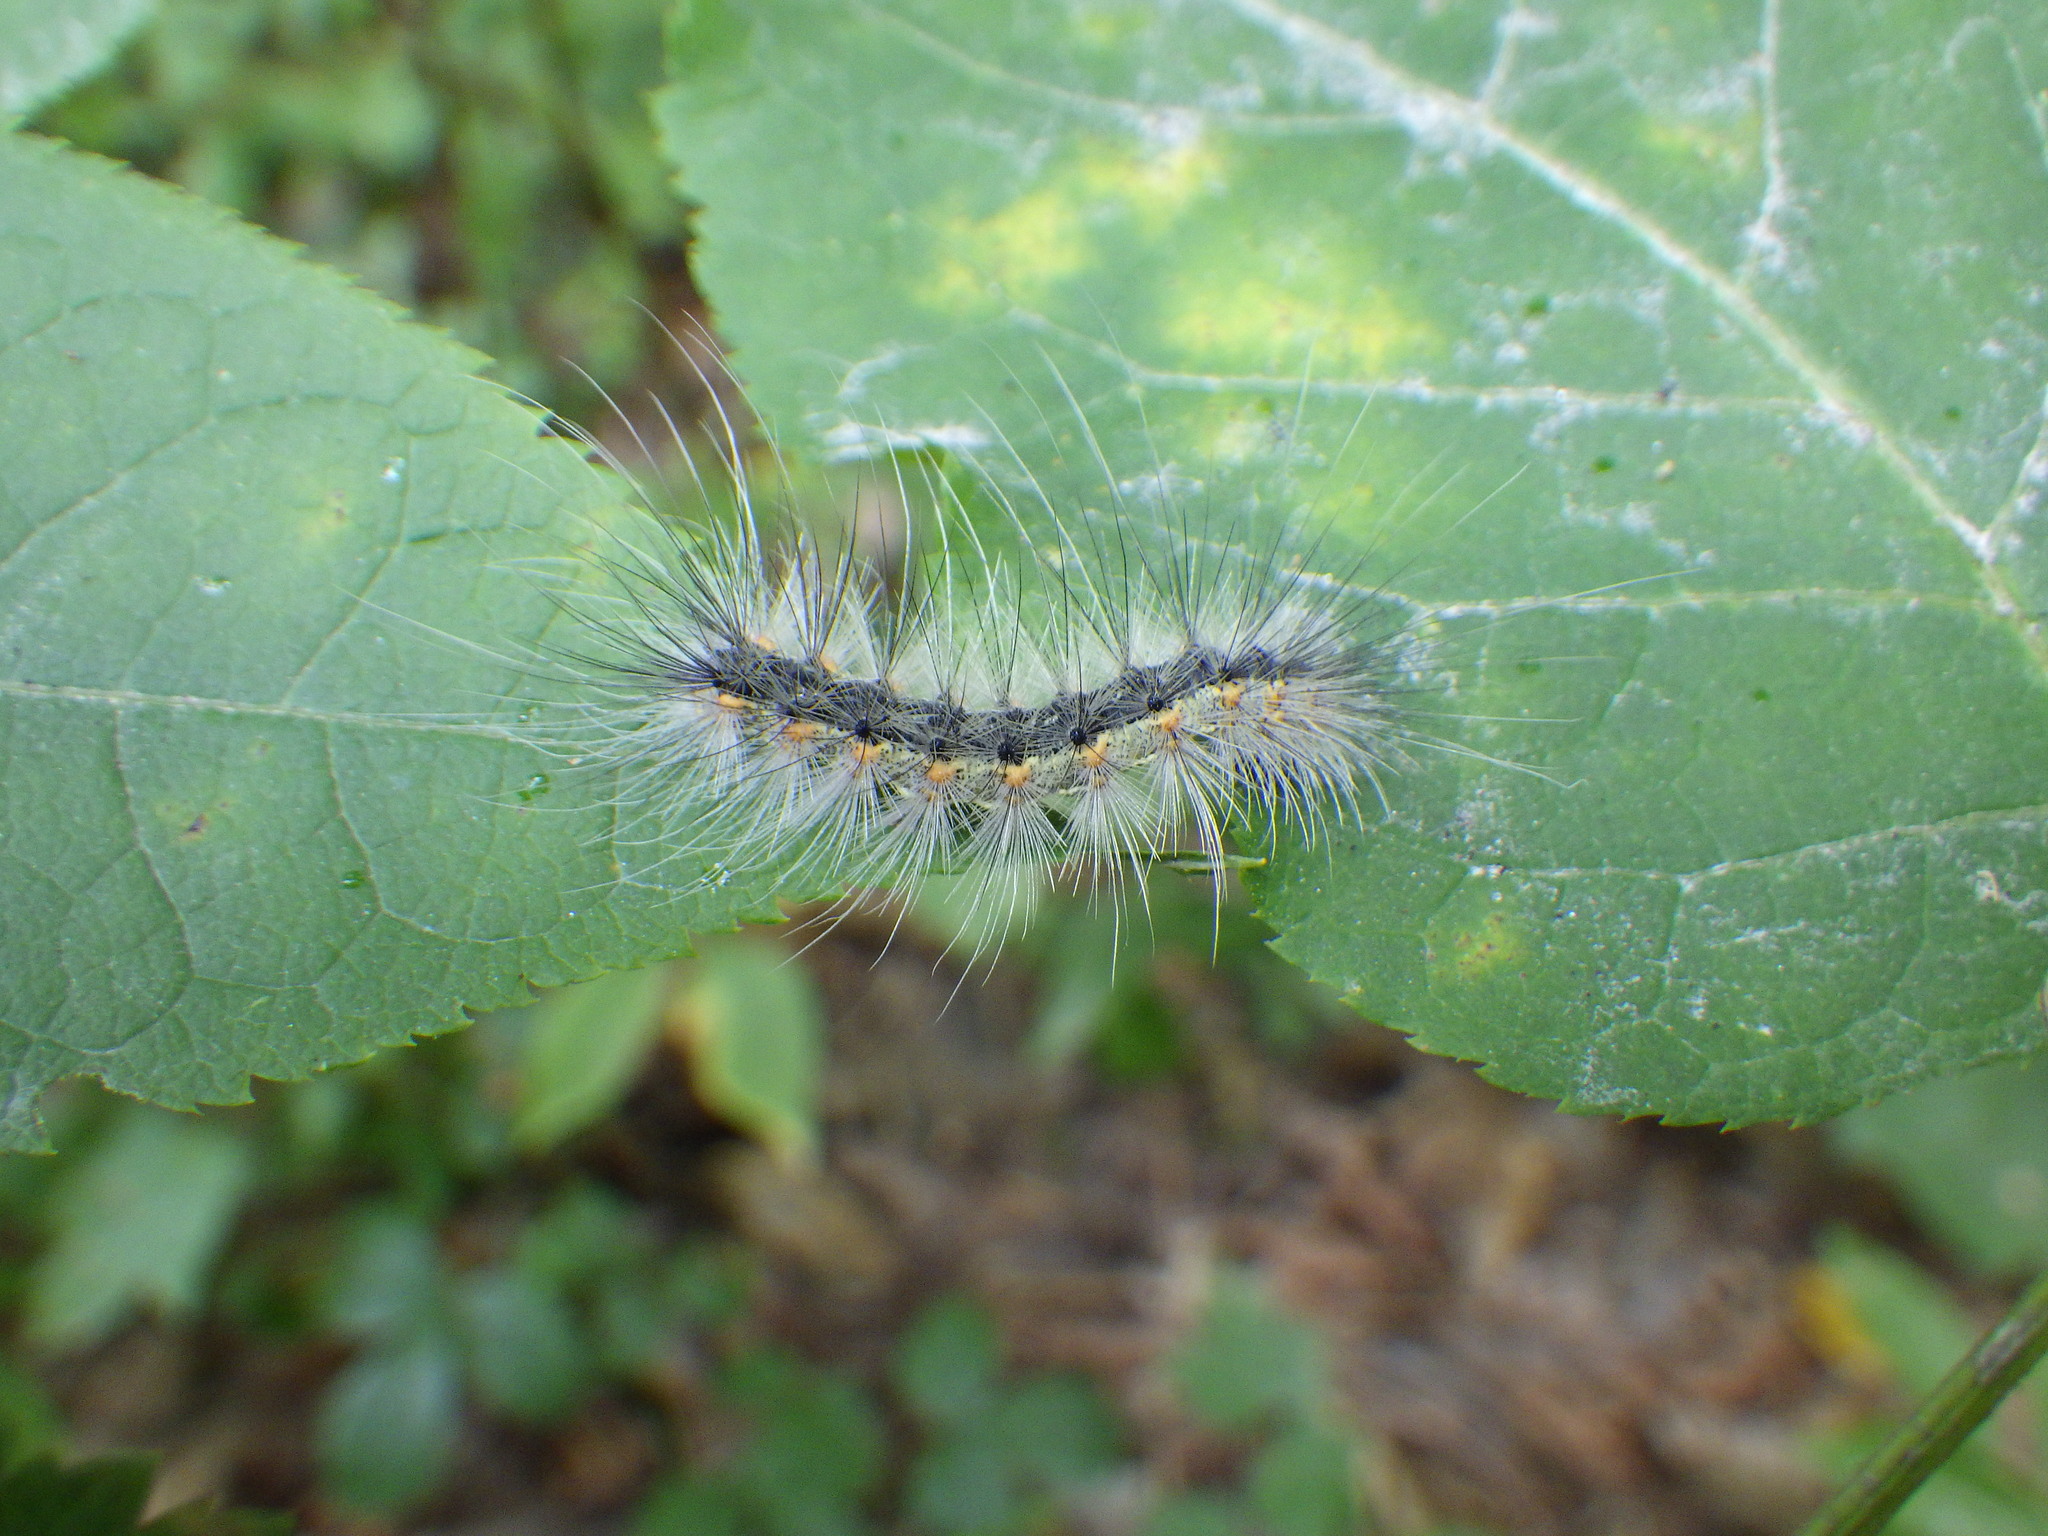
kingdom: Animalia
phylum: Arthropoda
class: Insecta
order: Lepidoptera
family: Erebidae
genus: Hyphantria
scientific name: Hyphantria cunea
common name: American white moth
